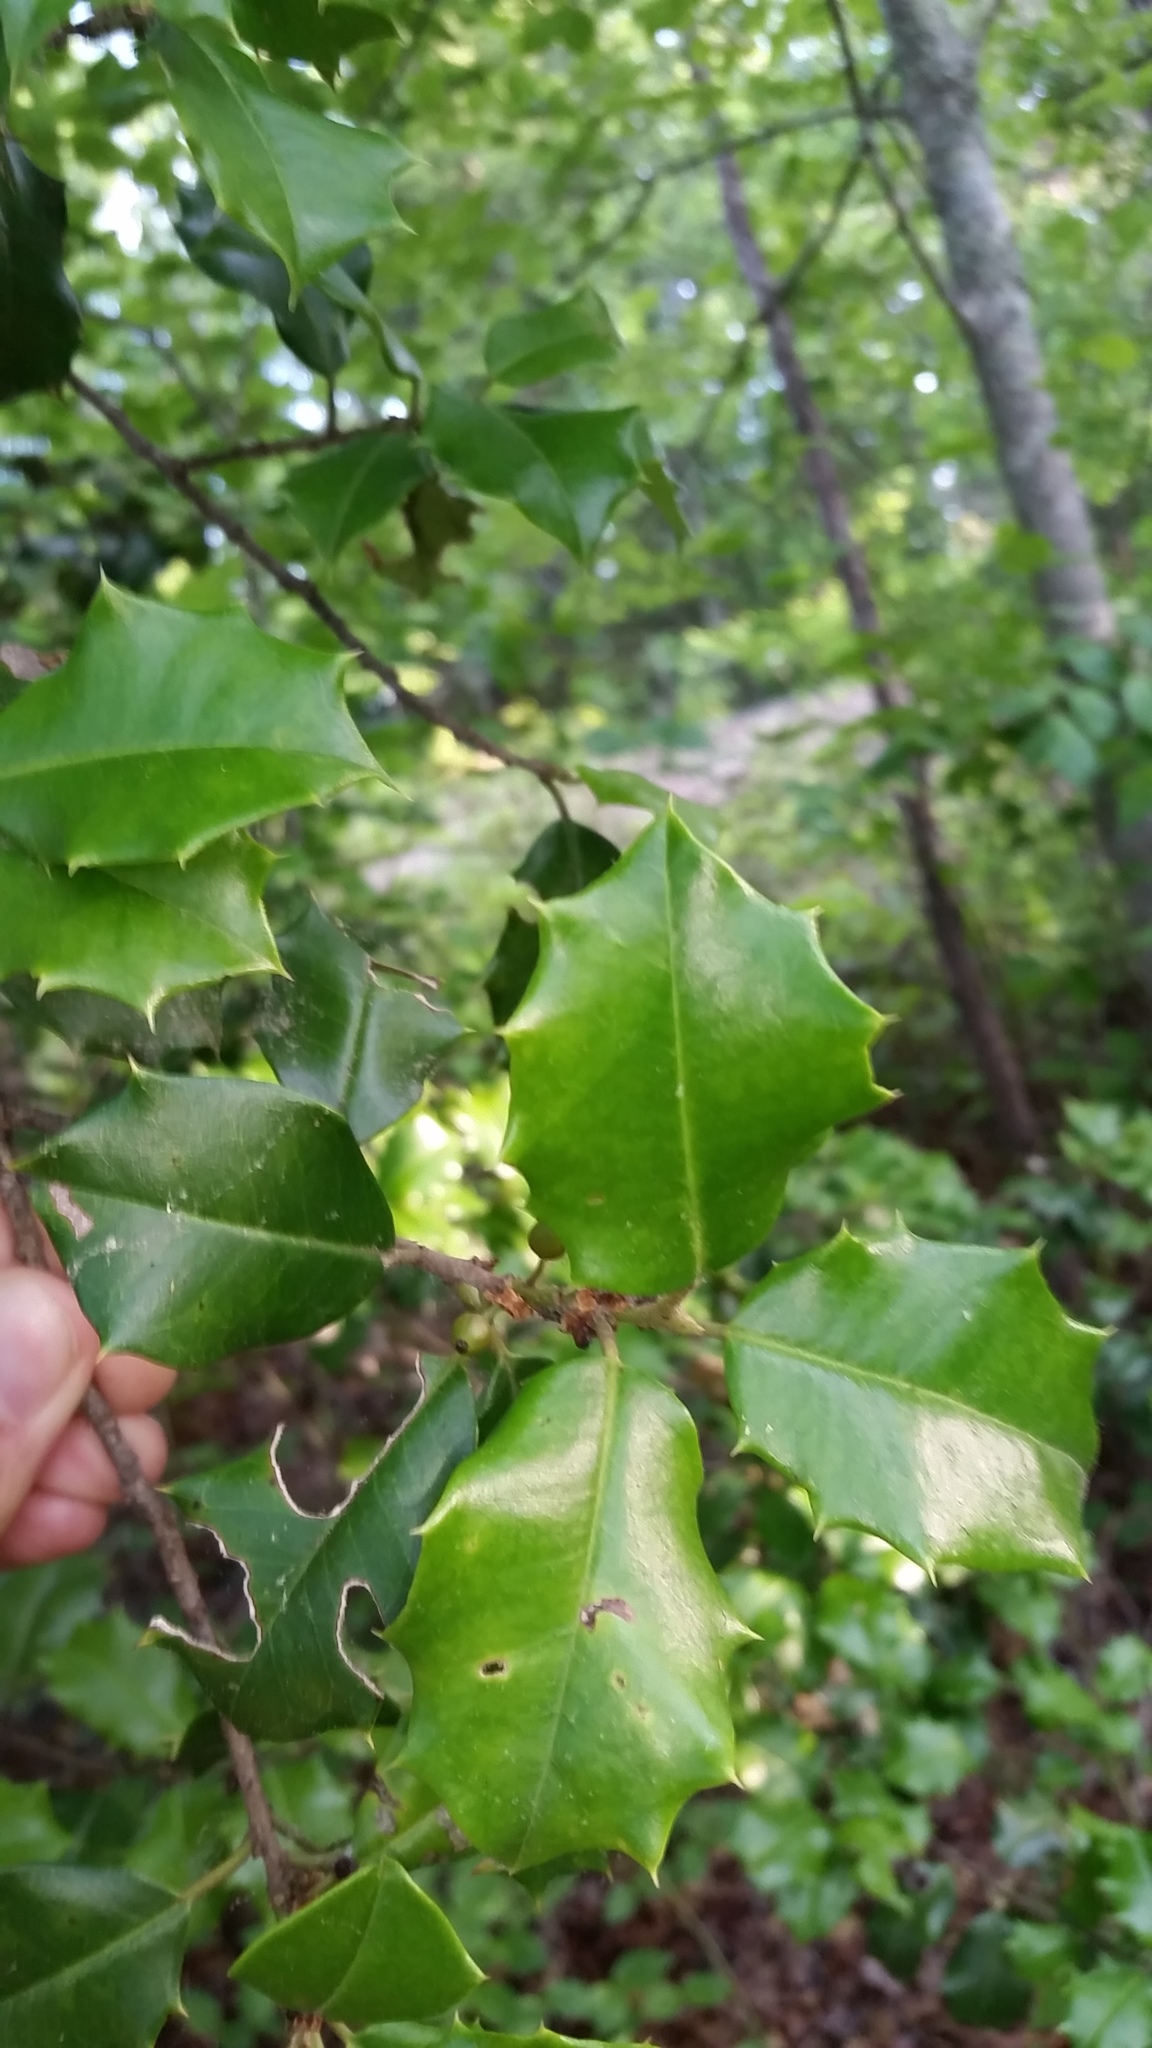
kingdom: Plantae
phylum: Tracheophyta
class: Magnoliopsida
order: Aquifoliales
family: Aquifoliaceae
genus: Ilex
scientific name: Ilex opaca
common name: American holly
